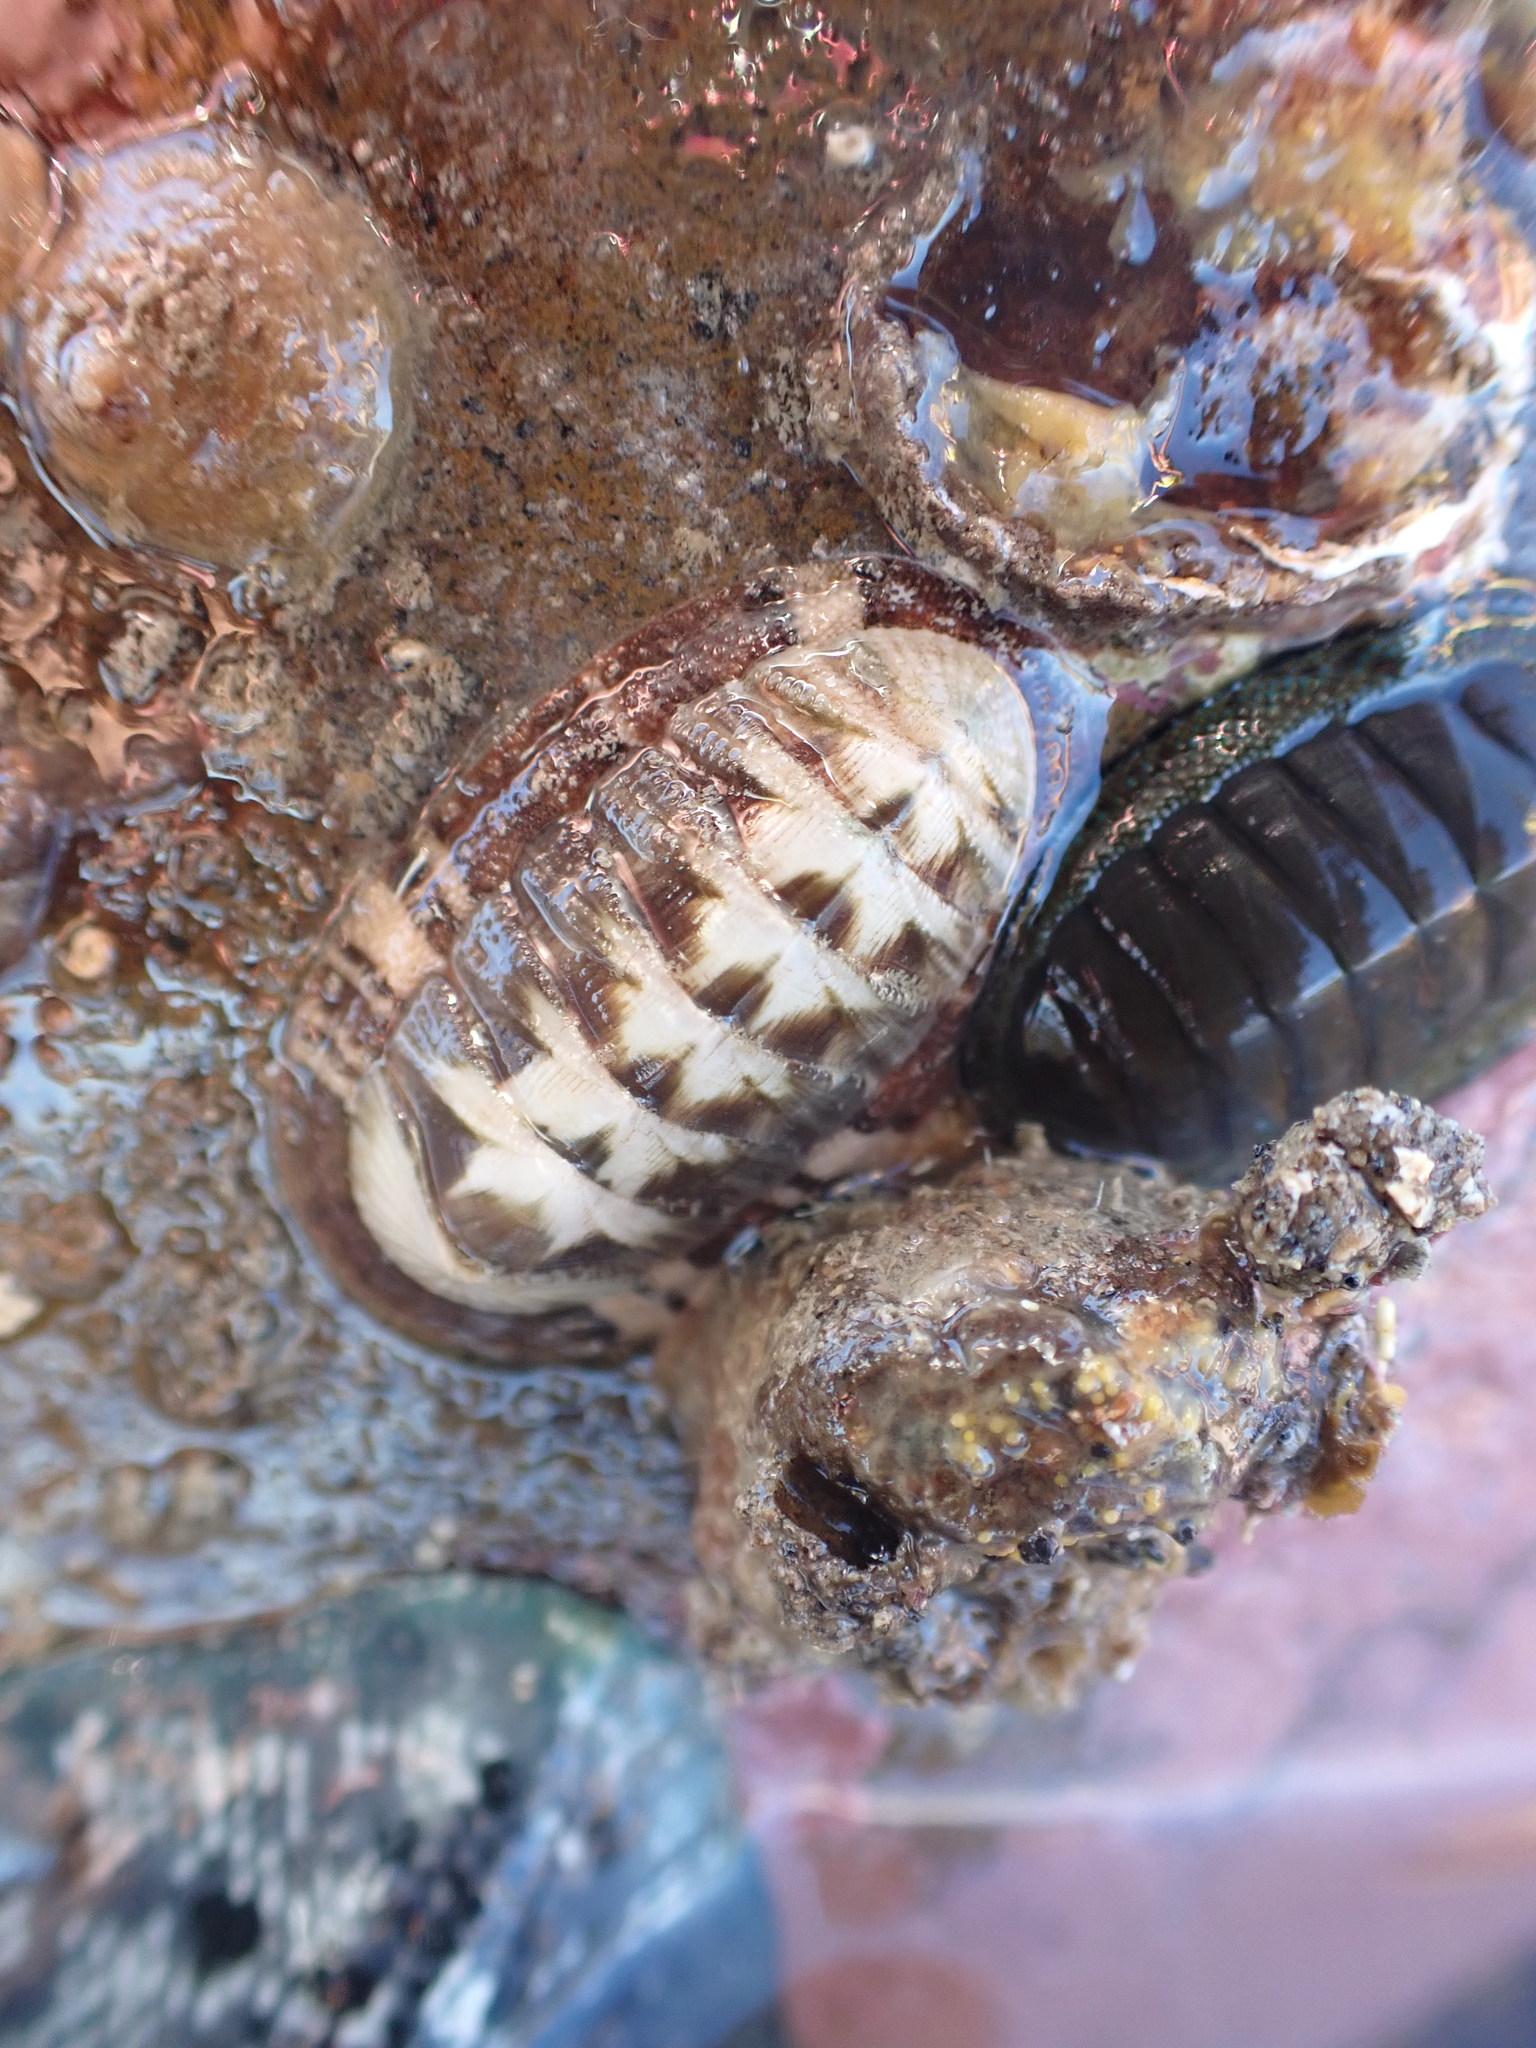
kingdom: Animalia
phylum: Mollusca
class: Polyplacophora
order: Chitonida
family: Chitonidae
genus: Rhyssoplax
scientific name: Rhyssoplax aerea
